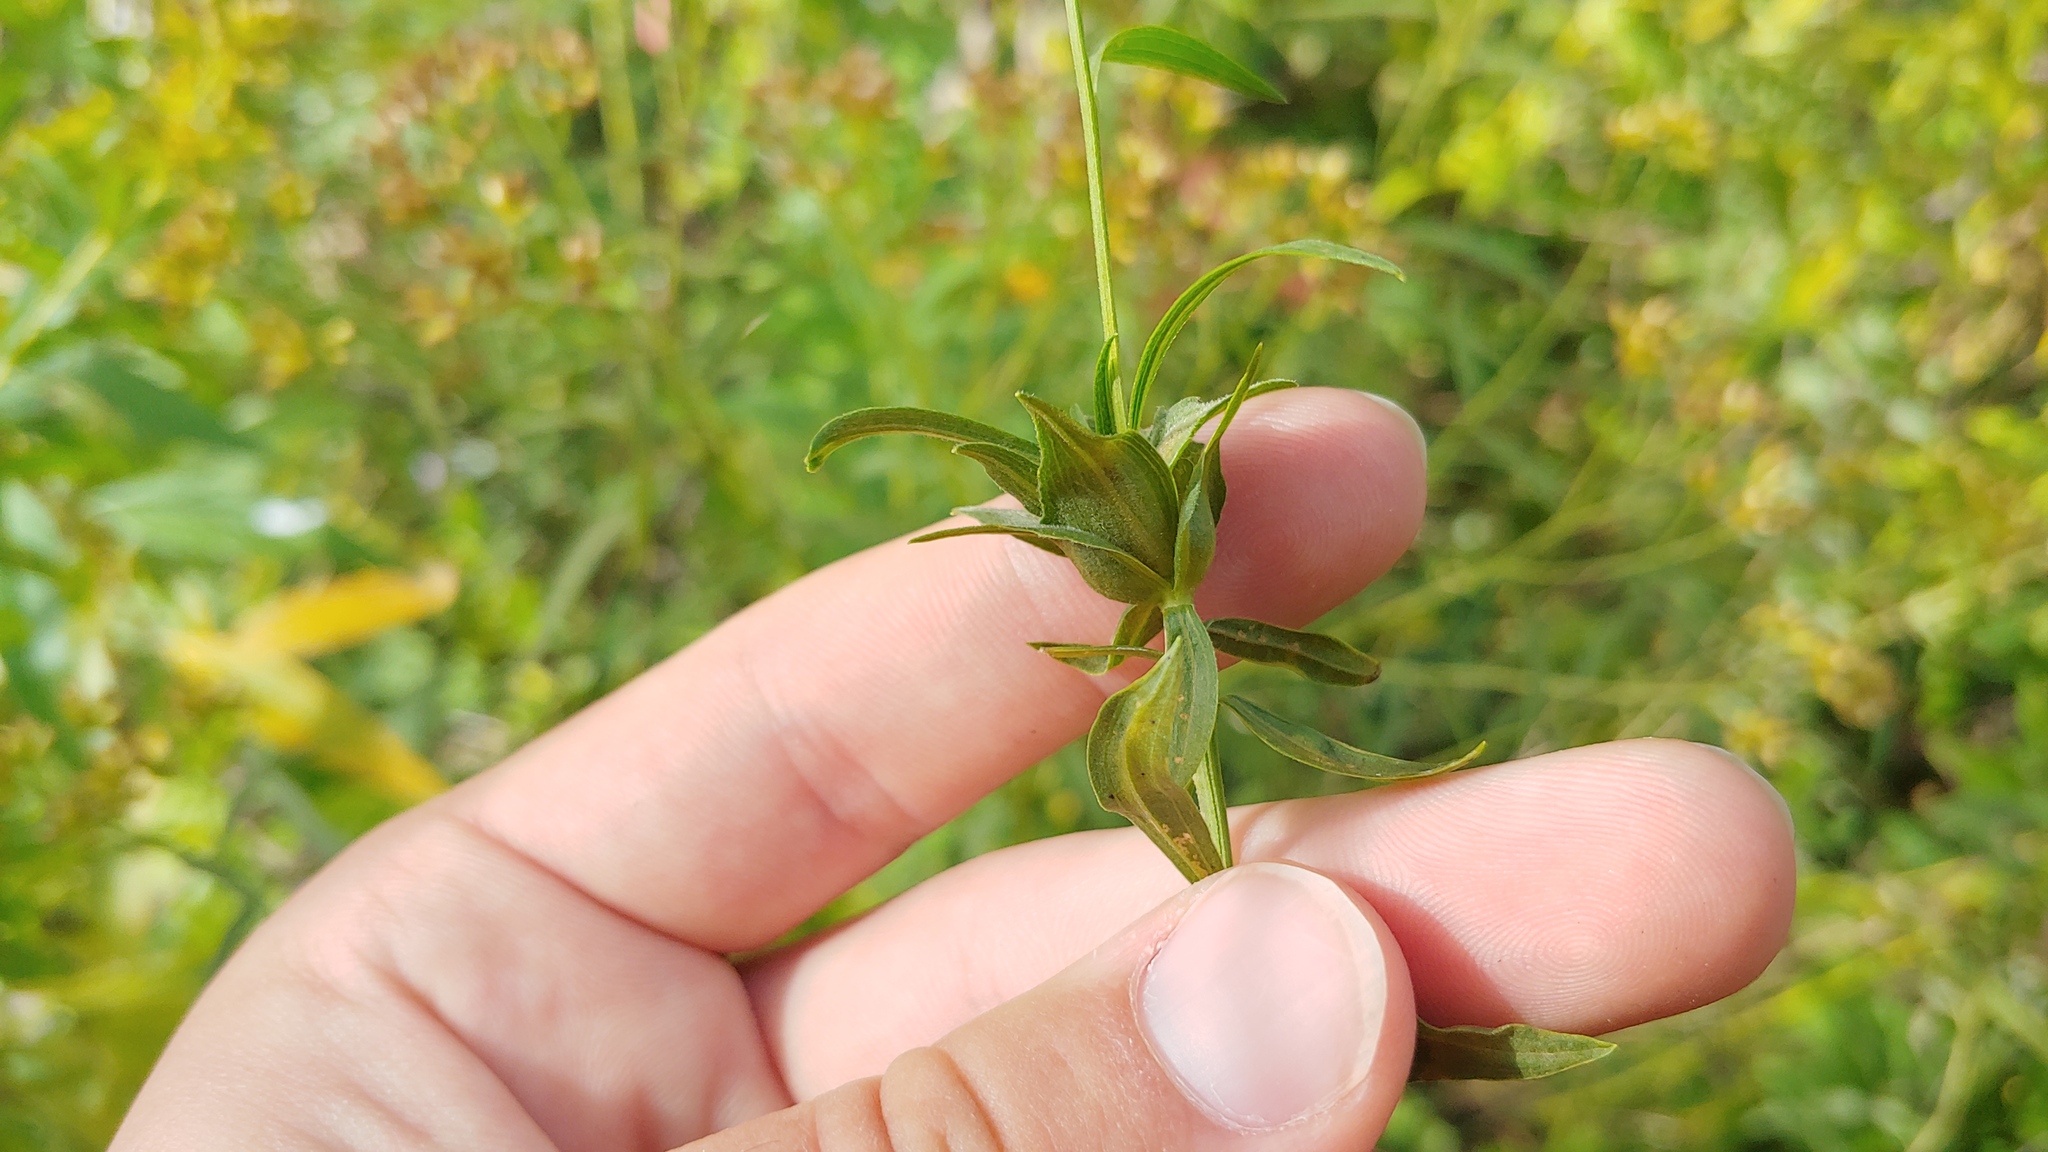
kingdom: Animalia
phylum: Arthropoda
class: Insecta
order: Diptera
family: Cecidomyiidae
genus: Asphondylia
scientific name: Asphondylia pseudorosa
